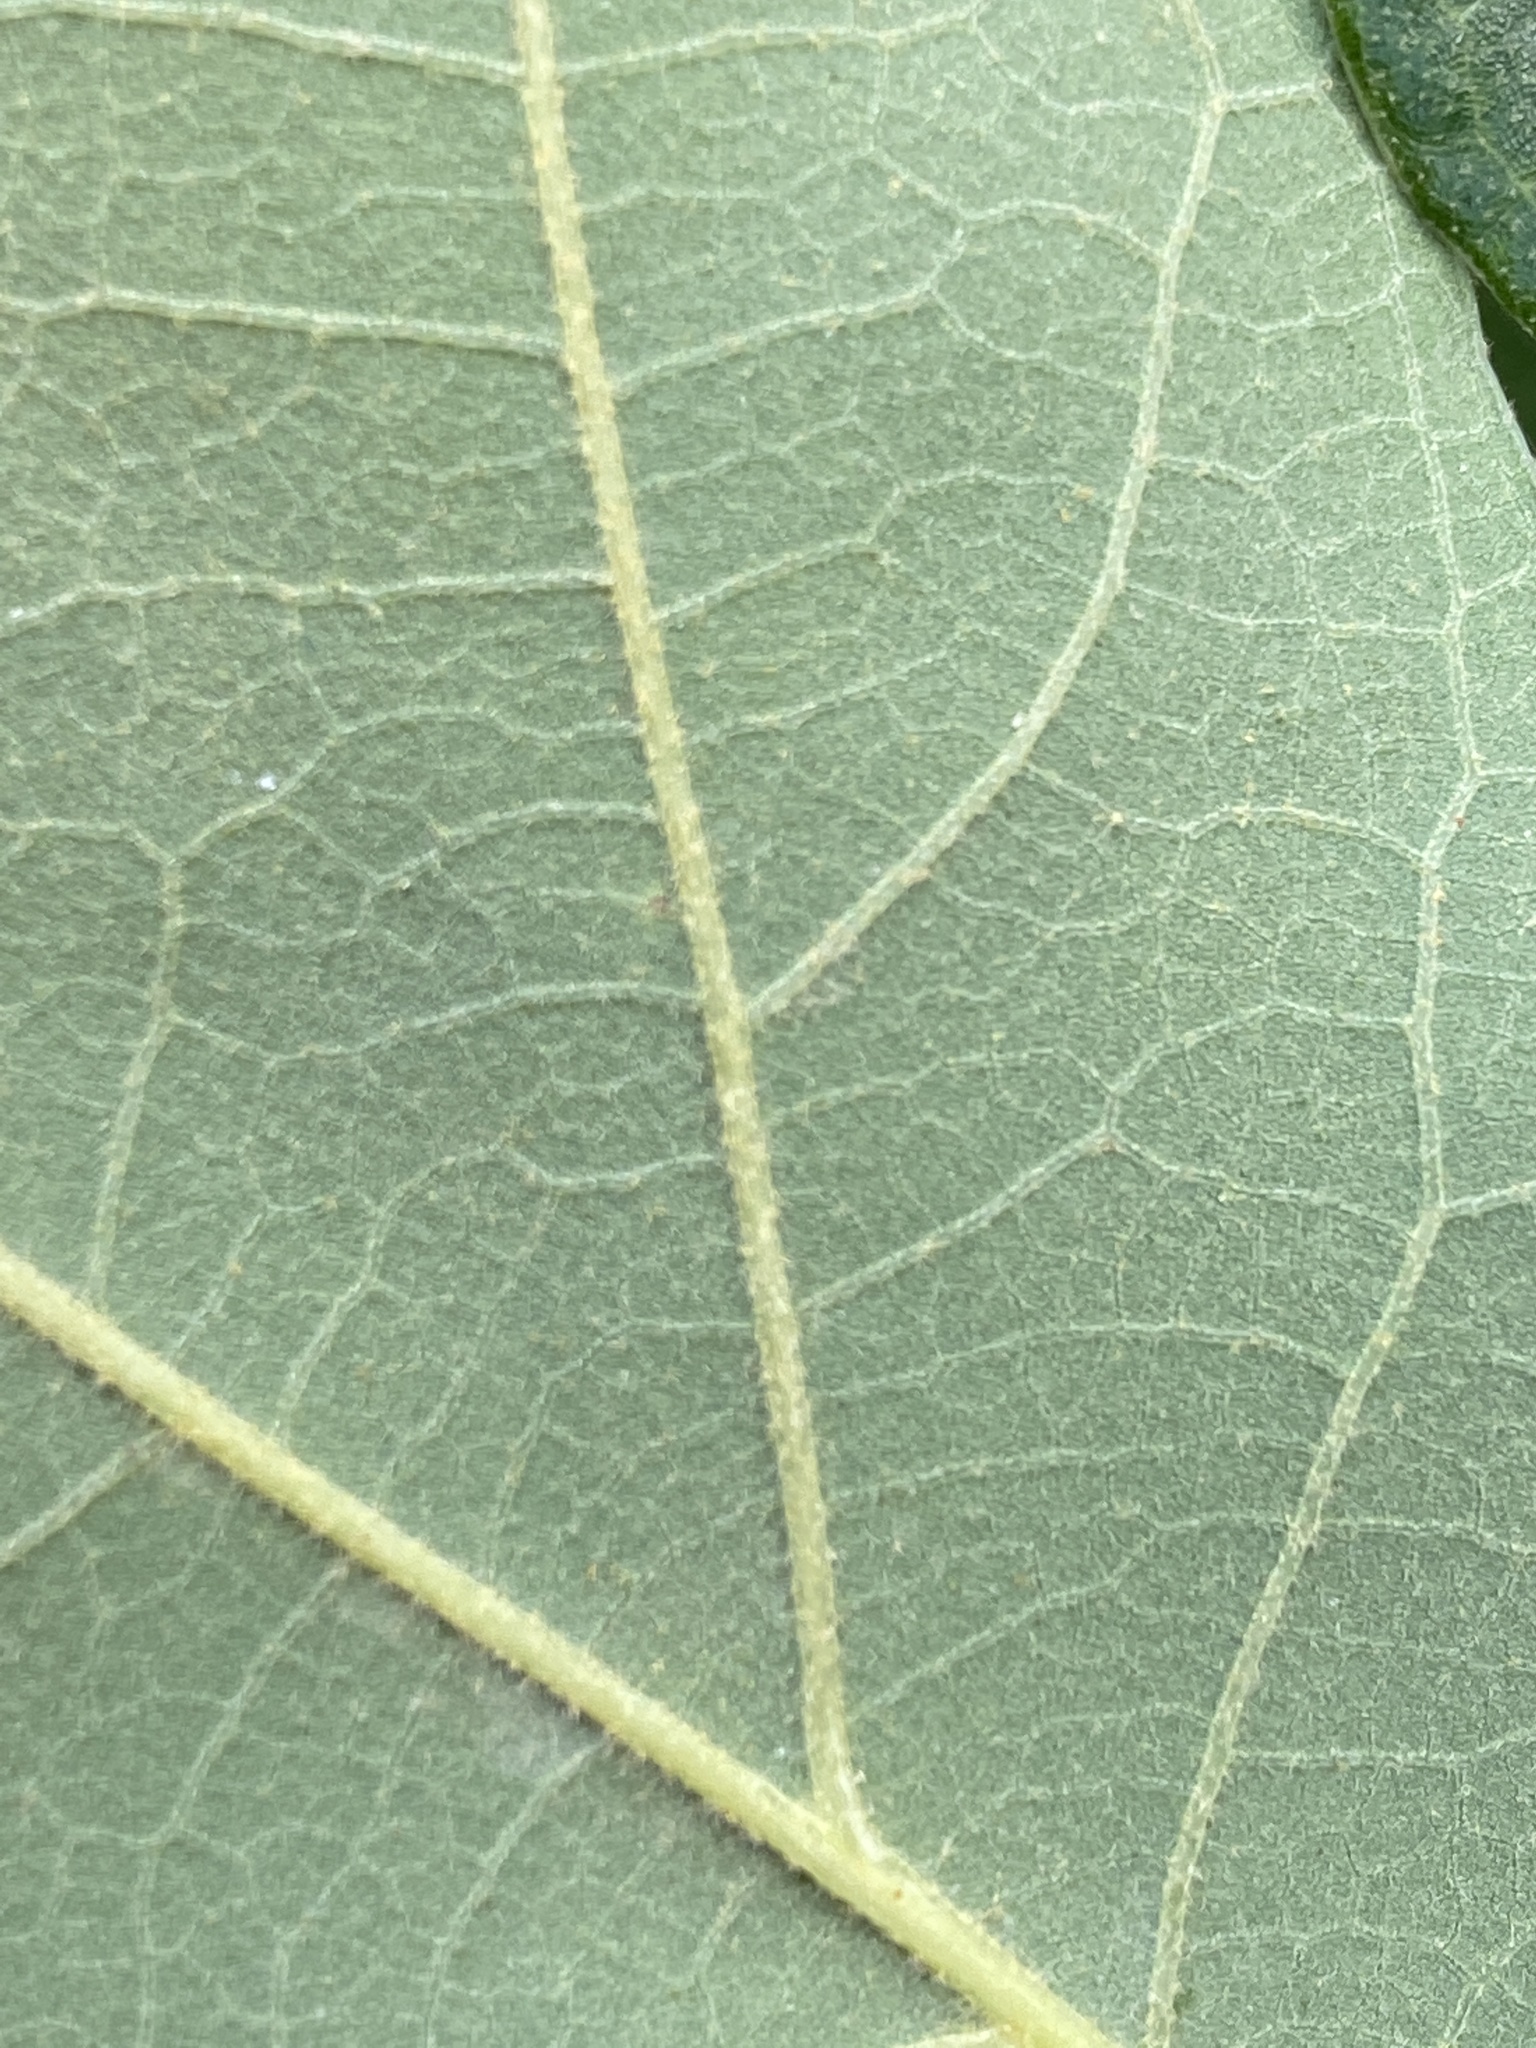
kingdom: Plantae
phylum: Tracheophyta
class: Magnoliopsida
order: Fagales
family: Fagaceae
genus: Quercus
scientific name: Quercus stellata
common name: Post oak
